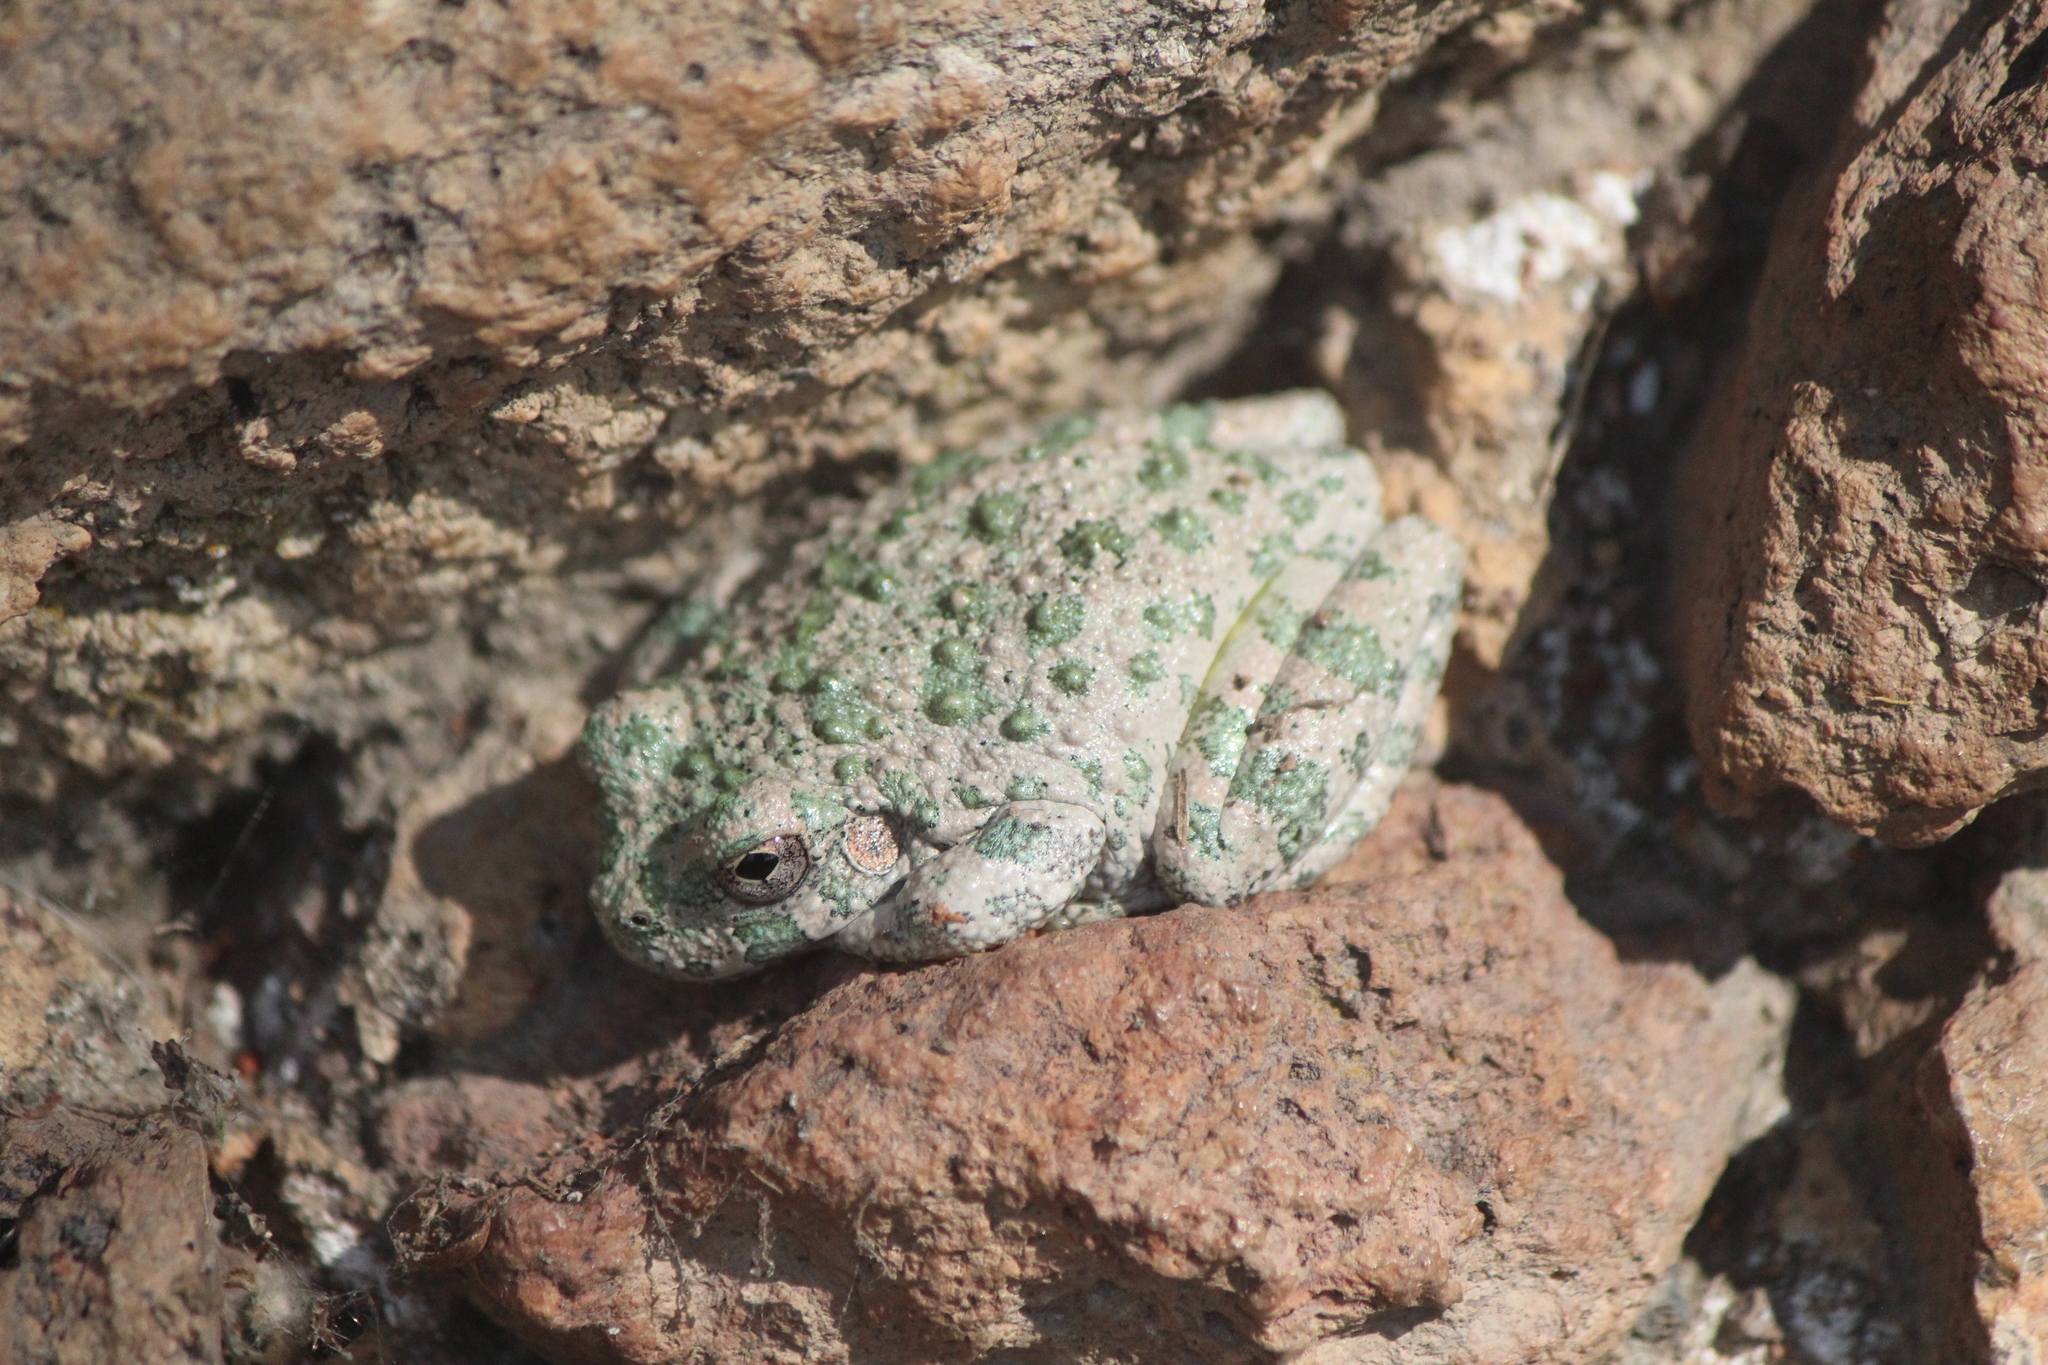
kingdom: Animalia
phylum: Chordata
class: Amphibia
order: Anura
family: Hylidae
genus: Dryophytes
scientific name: Dryophytes arenicolor
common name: Canyon treefrog
